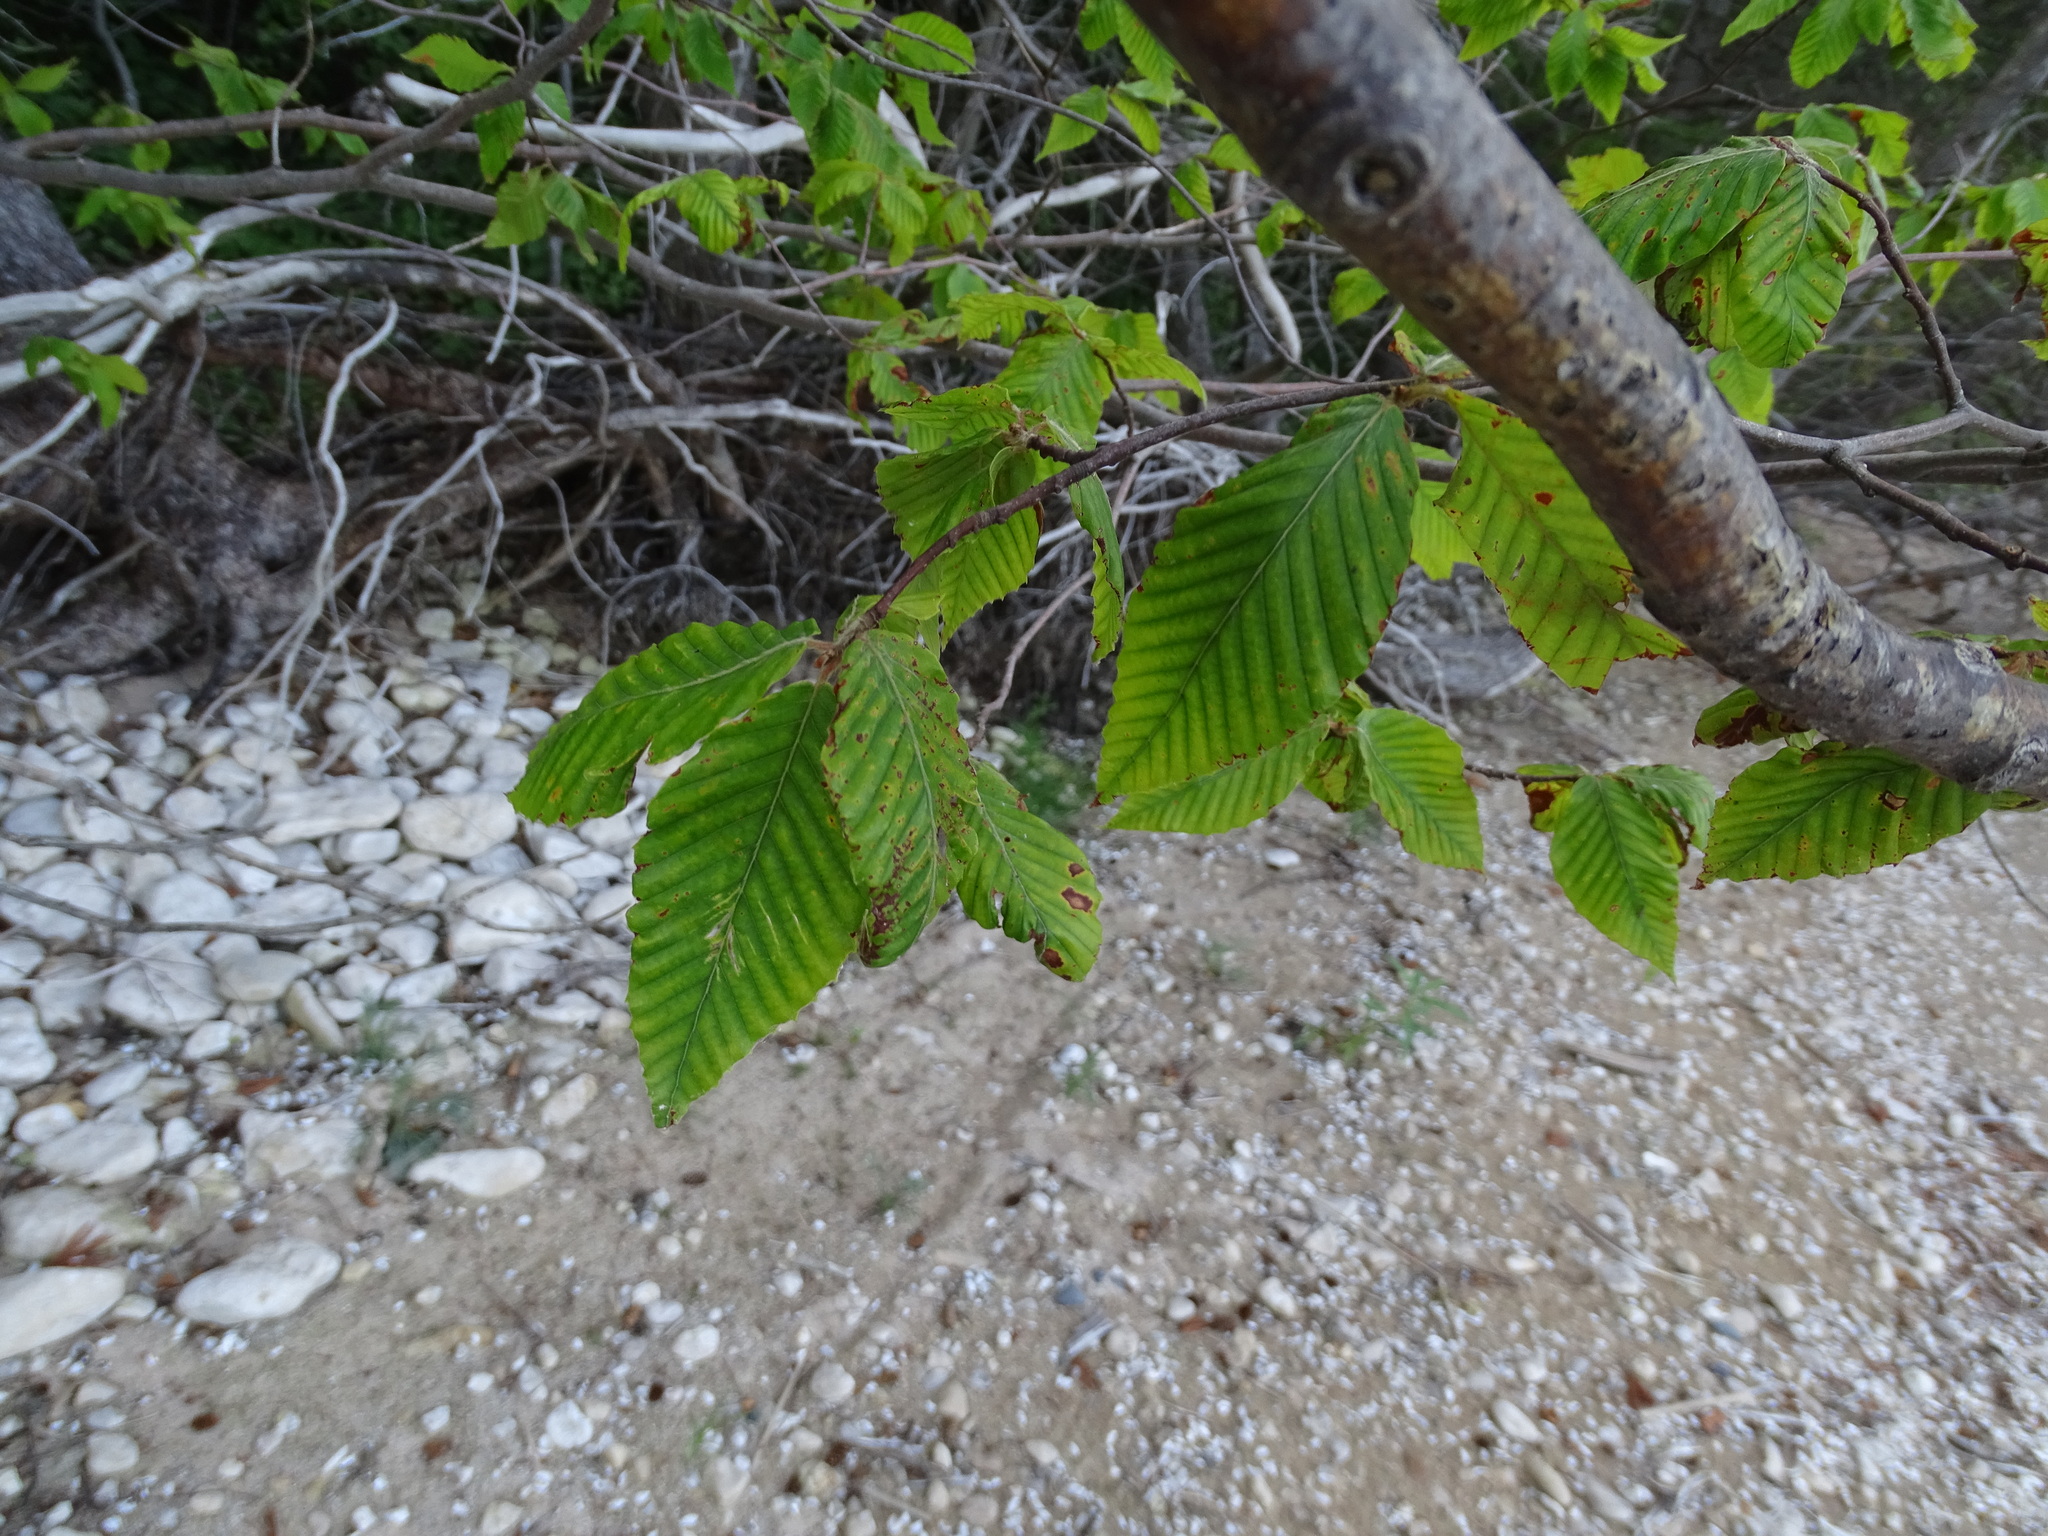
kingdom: Plantae
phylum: Tracheophyta
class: Magnoliopsida
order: Fagales
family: Fagaceae
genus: Fagus
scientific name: Fagus grandifolia
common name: American beech
